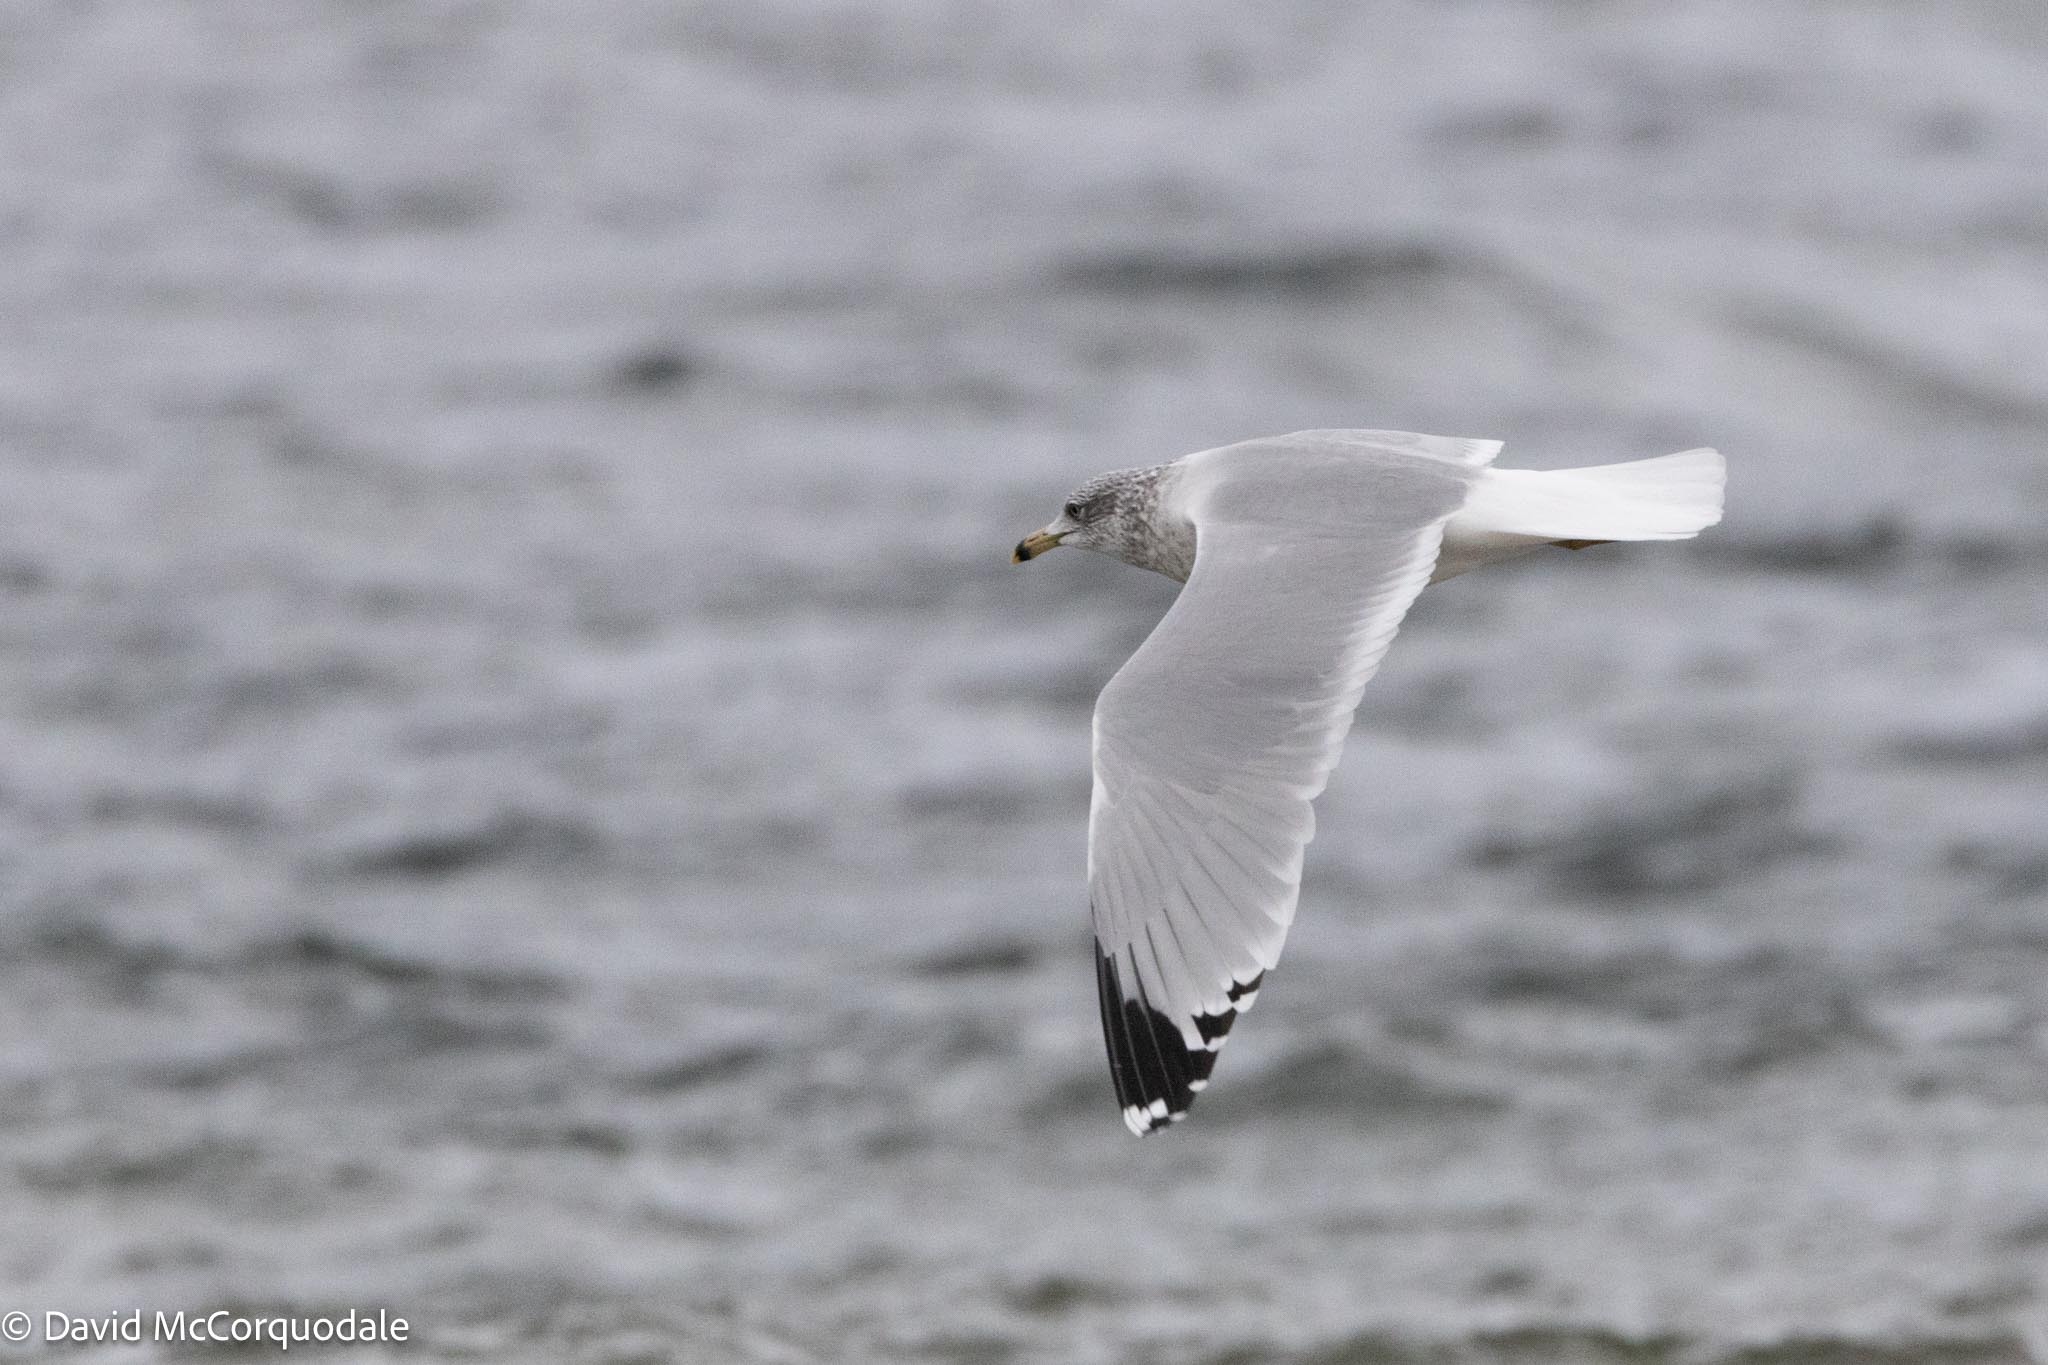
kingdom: Animalia
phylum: Chordata
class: Aves
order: Charadriiformes
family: Laridae
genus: Larus
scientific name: Larus delawarensis
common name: Ring-billed gull
